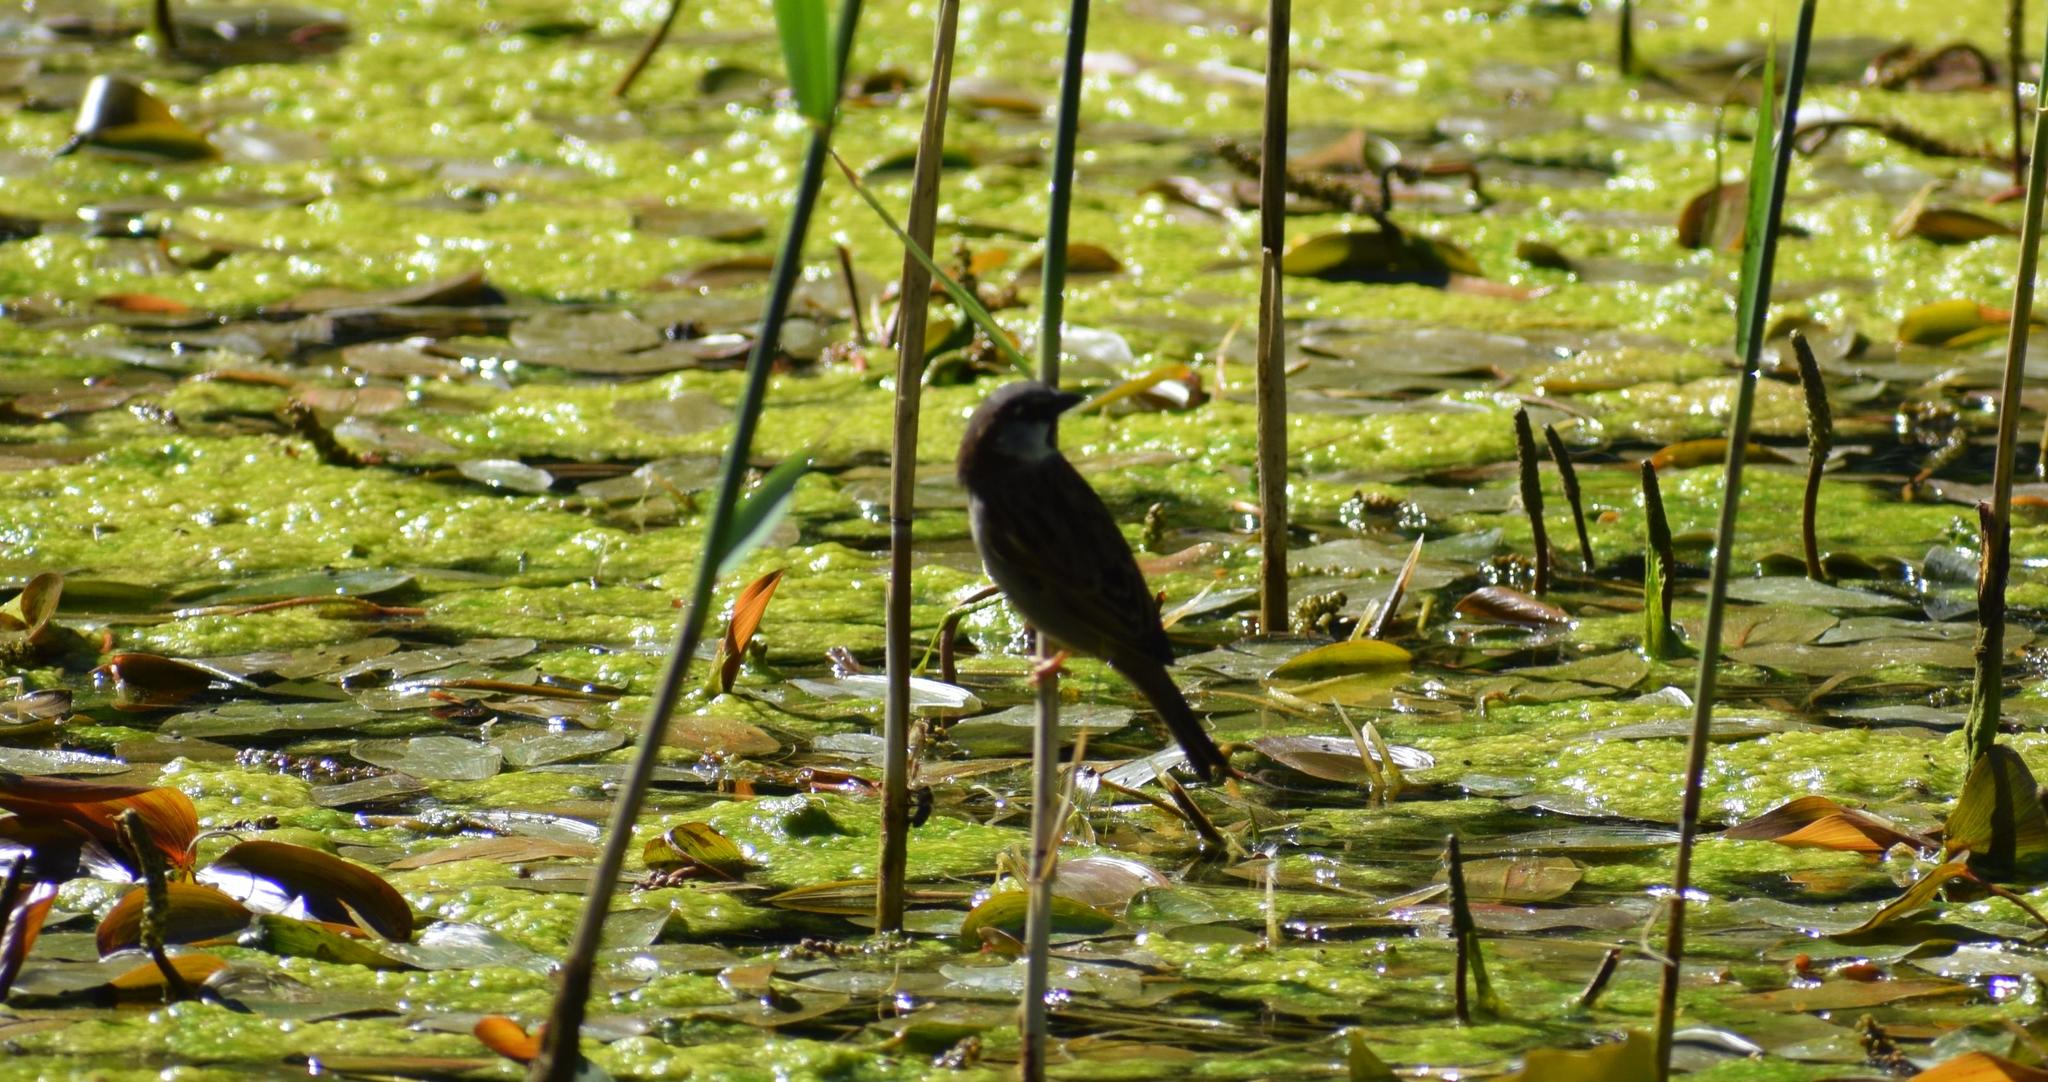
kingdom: Animalia
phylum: Chordata
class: Aves
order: Passeriformes
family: Passeridae
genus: Passer
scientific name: Passer domesticus
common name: House sparrow
